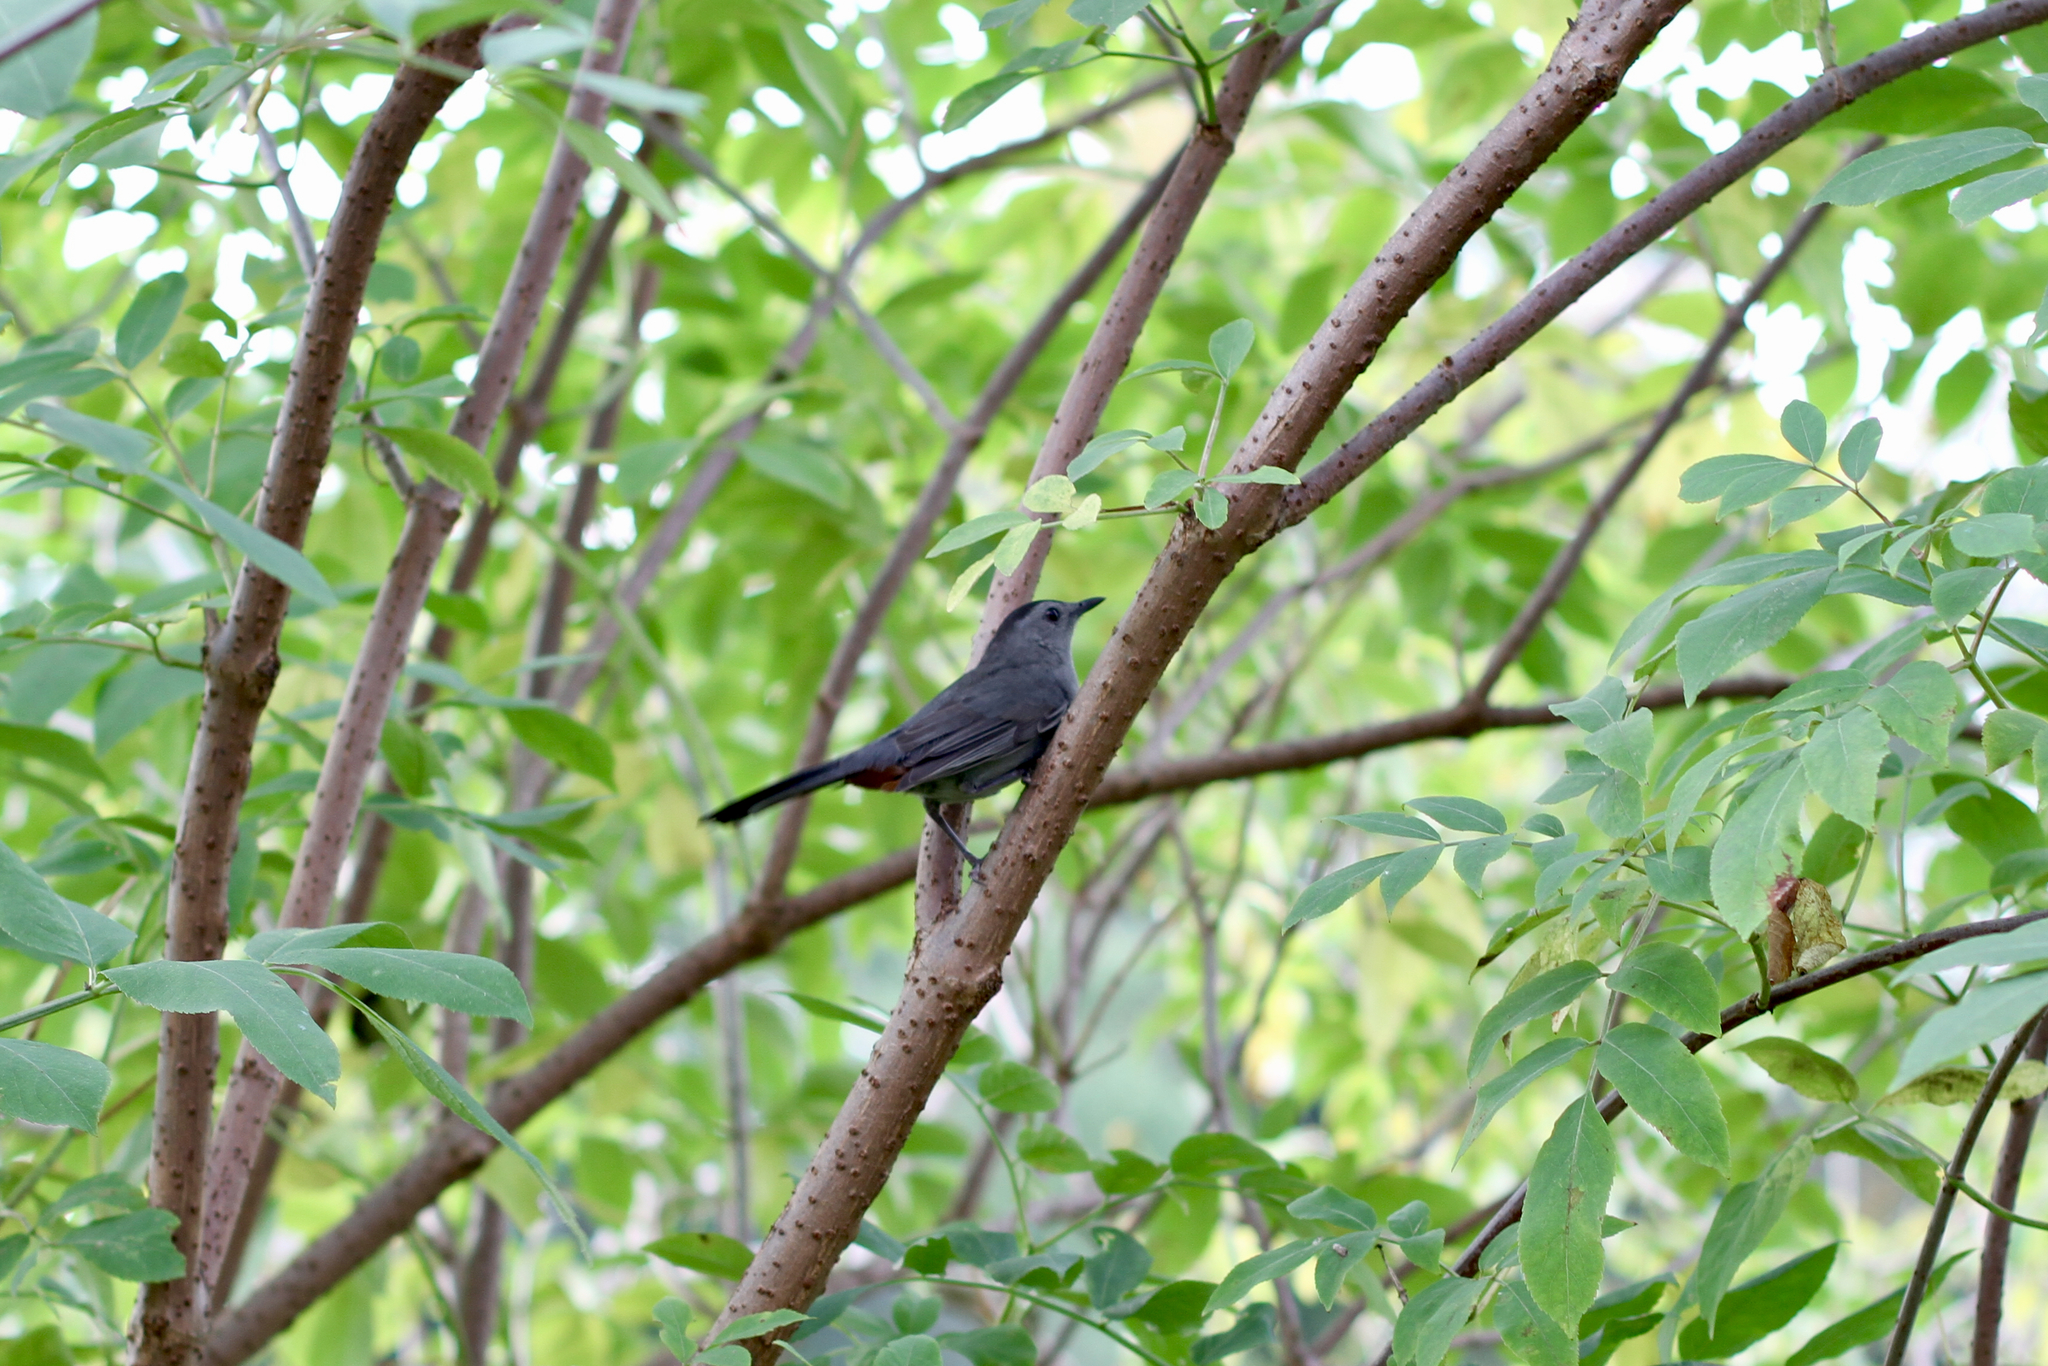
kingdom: Animalia
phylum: Chordata
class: Aves
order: Passeriformes
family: Mimidae
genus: Dumetella
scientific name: Dumetella carolinensis
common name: Gray catbird
